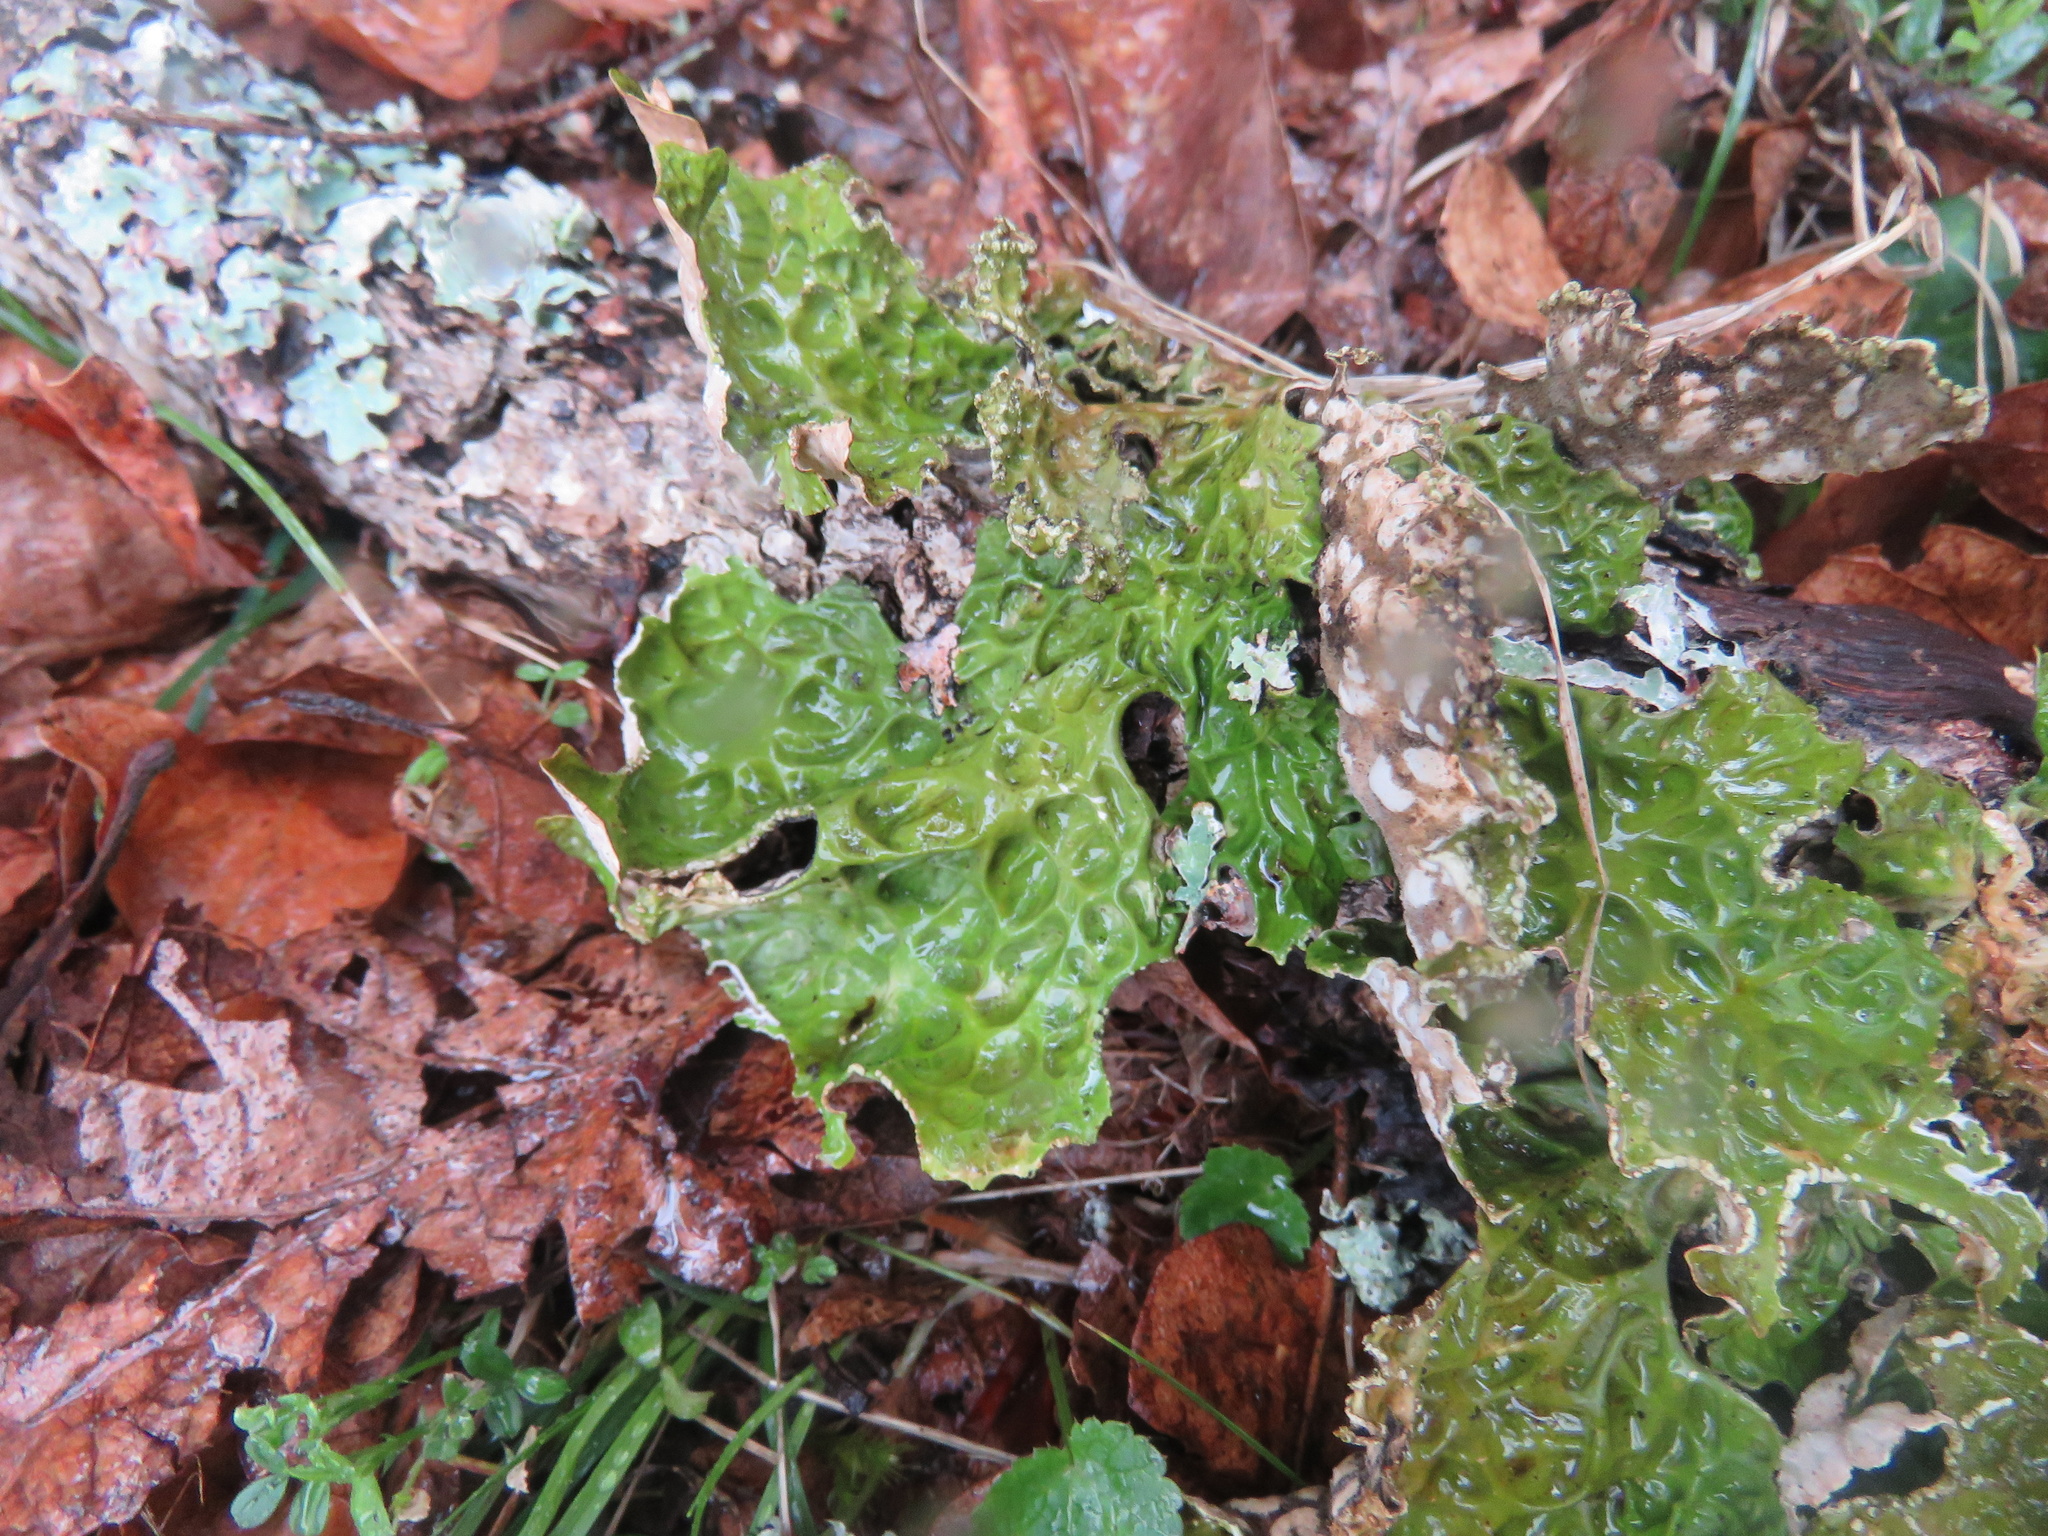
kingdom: Fungi
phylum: Ascomycota
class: Lecanoromycetes
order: Peltigerales
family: Lobariaceae
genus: Lobaria
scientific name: Lobaria pulmonaria
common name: Lungwort
